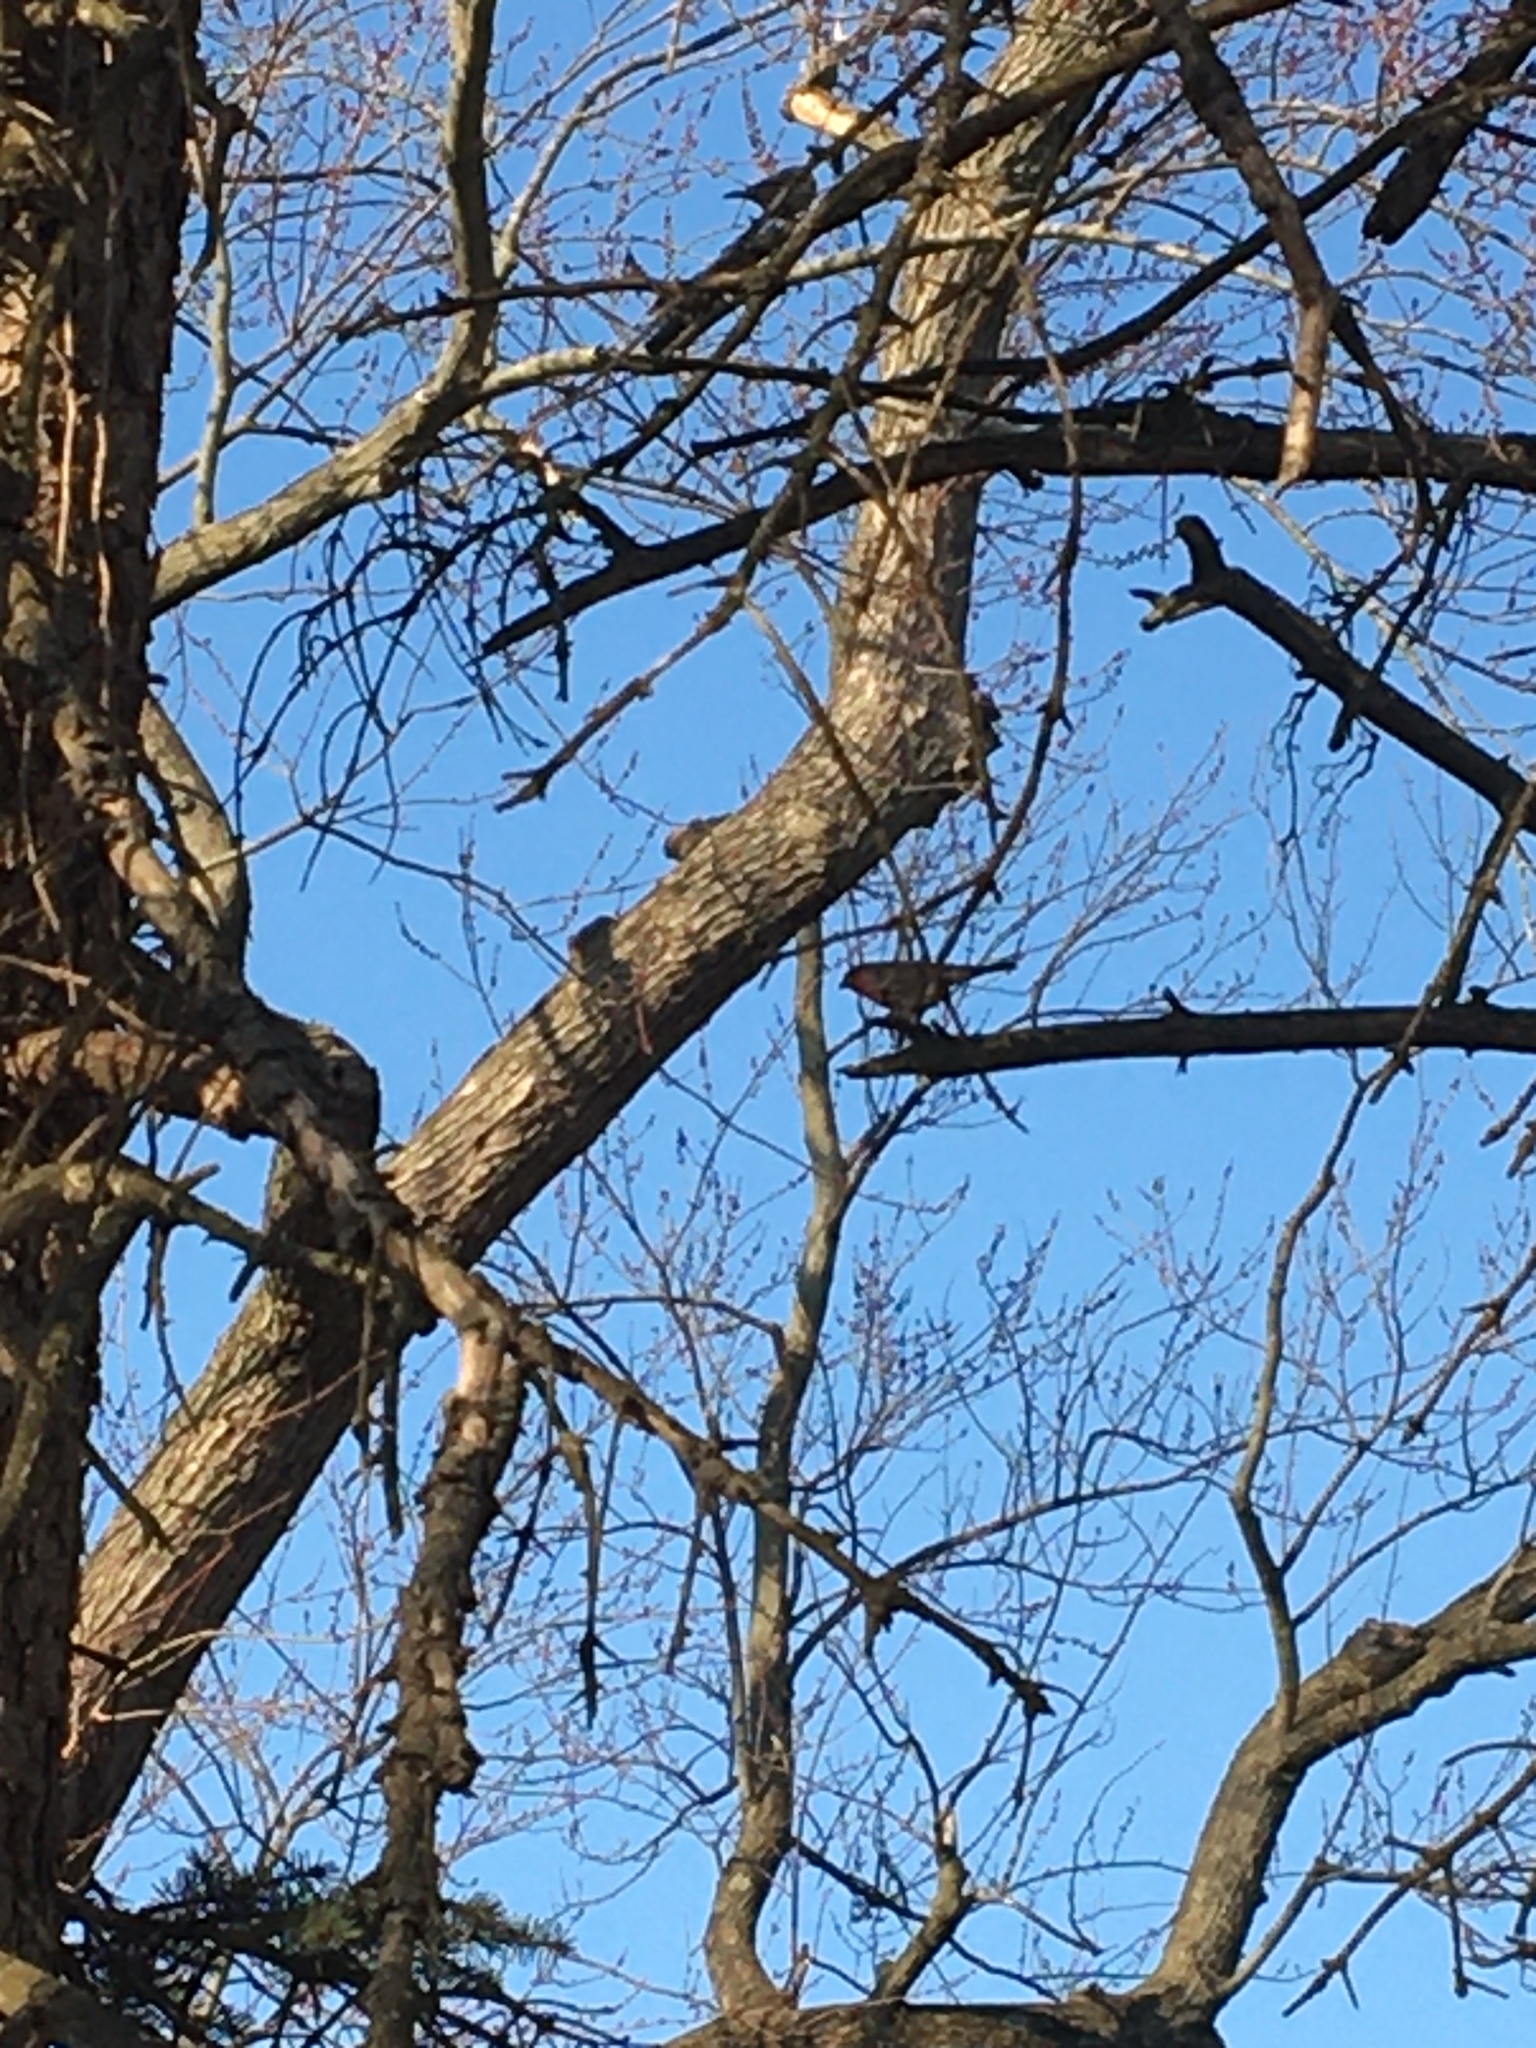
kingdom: Animalia
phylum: Chordata
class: Aves
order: Passeriformes
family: Fringillidae
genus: Haemorhous
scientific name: Haemorhous mexicanus
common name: House finch
